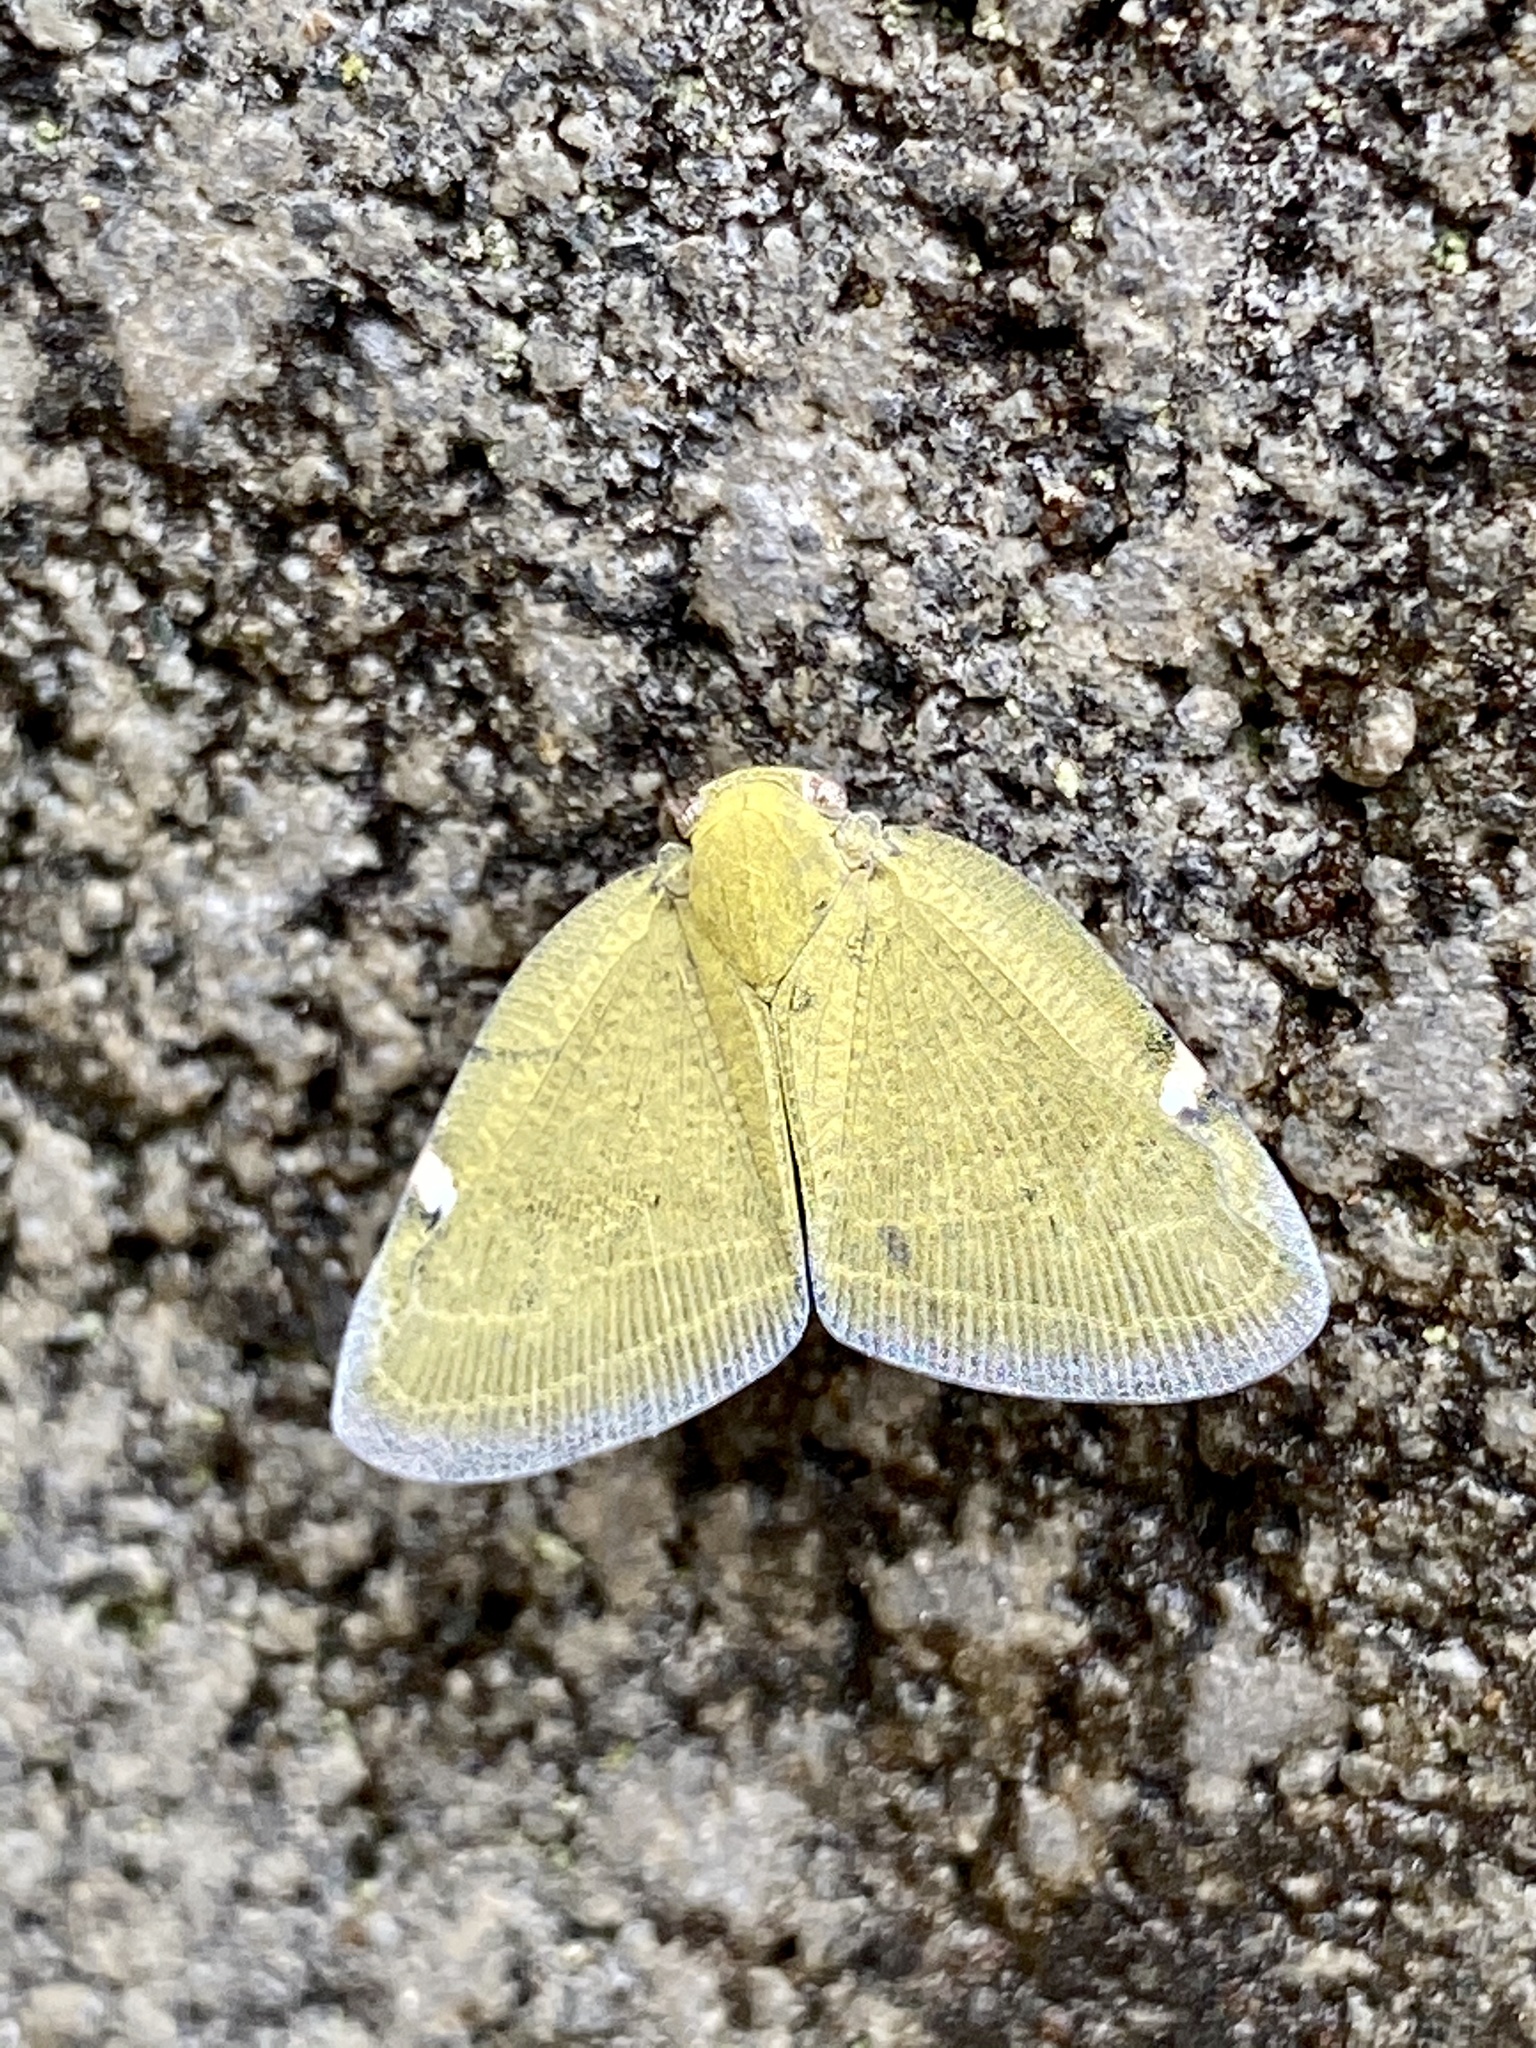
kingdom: Animalia
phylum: Arthropoda
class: Insecta
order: Hemiptera
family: Ricaniidae
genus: Pochazia
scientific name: Pochazia albomaculata
